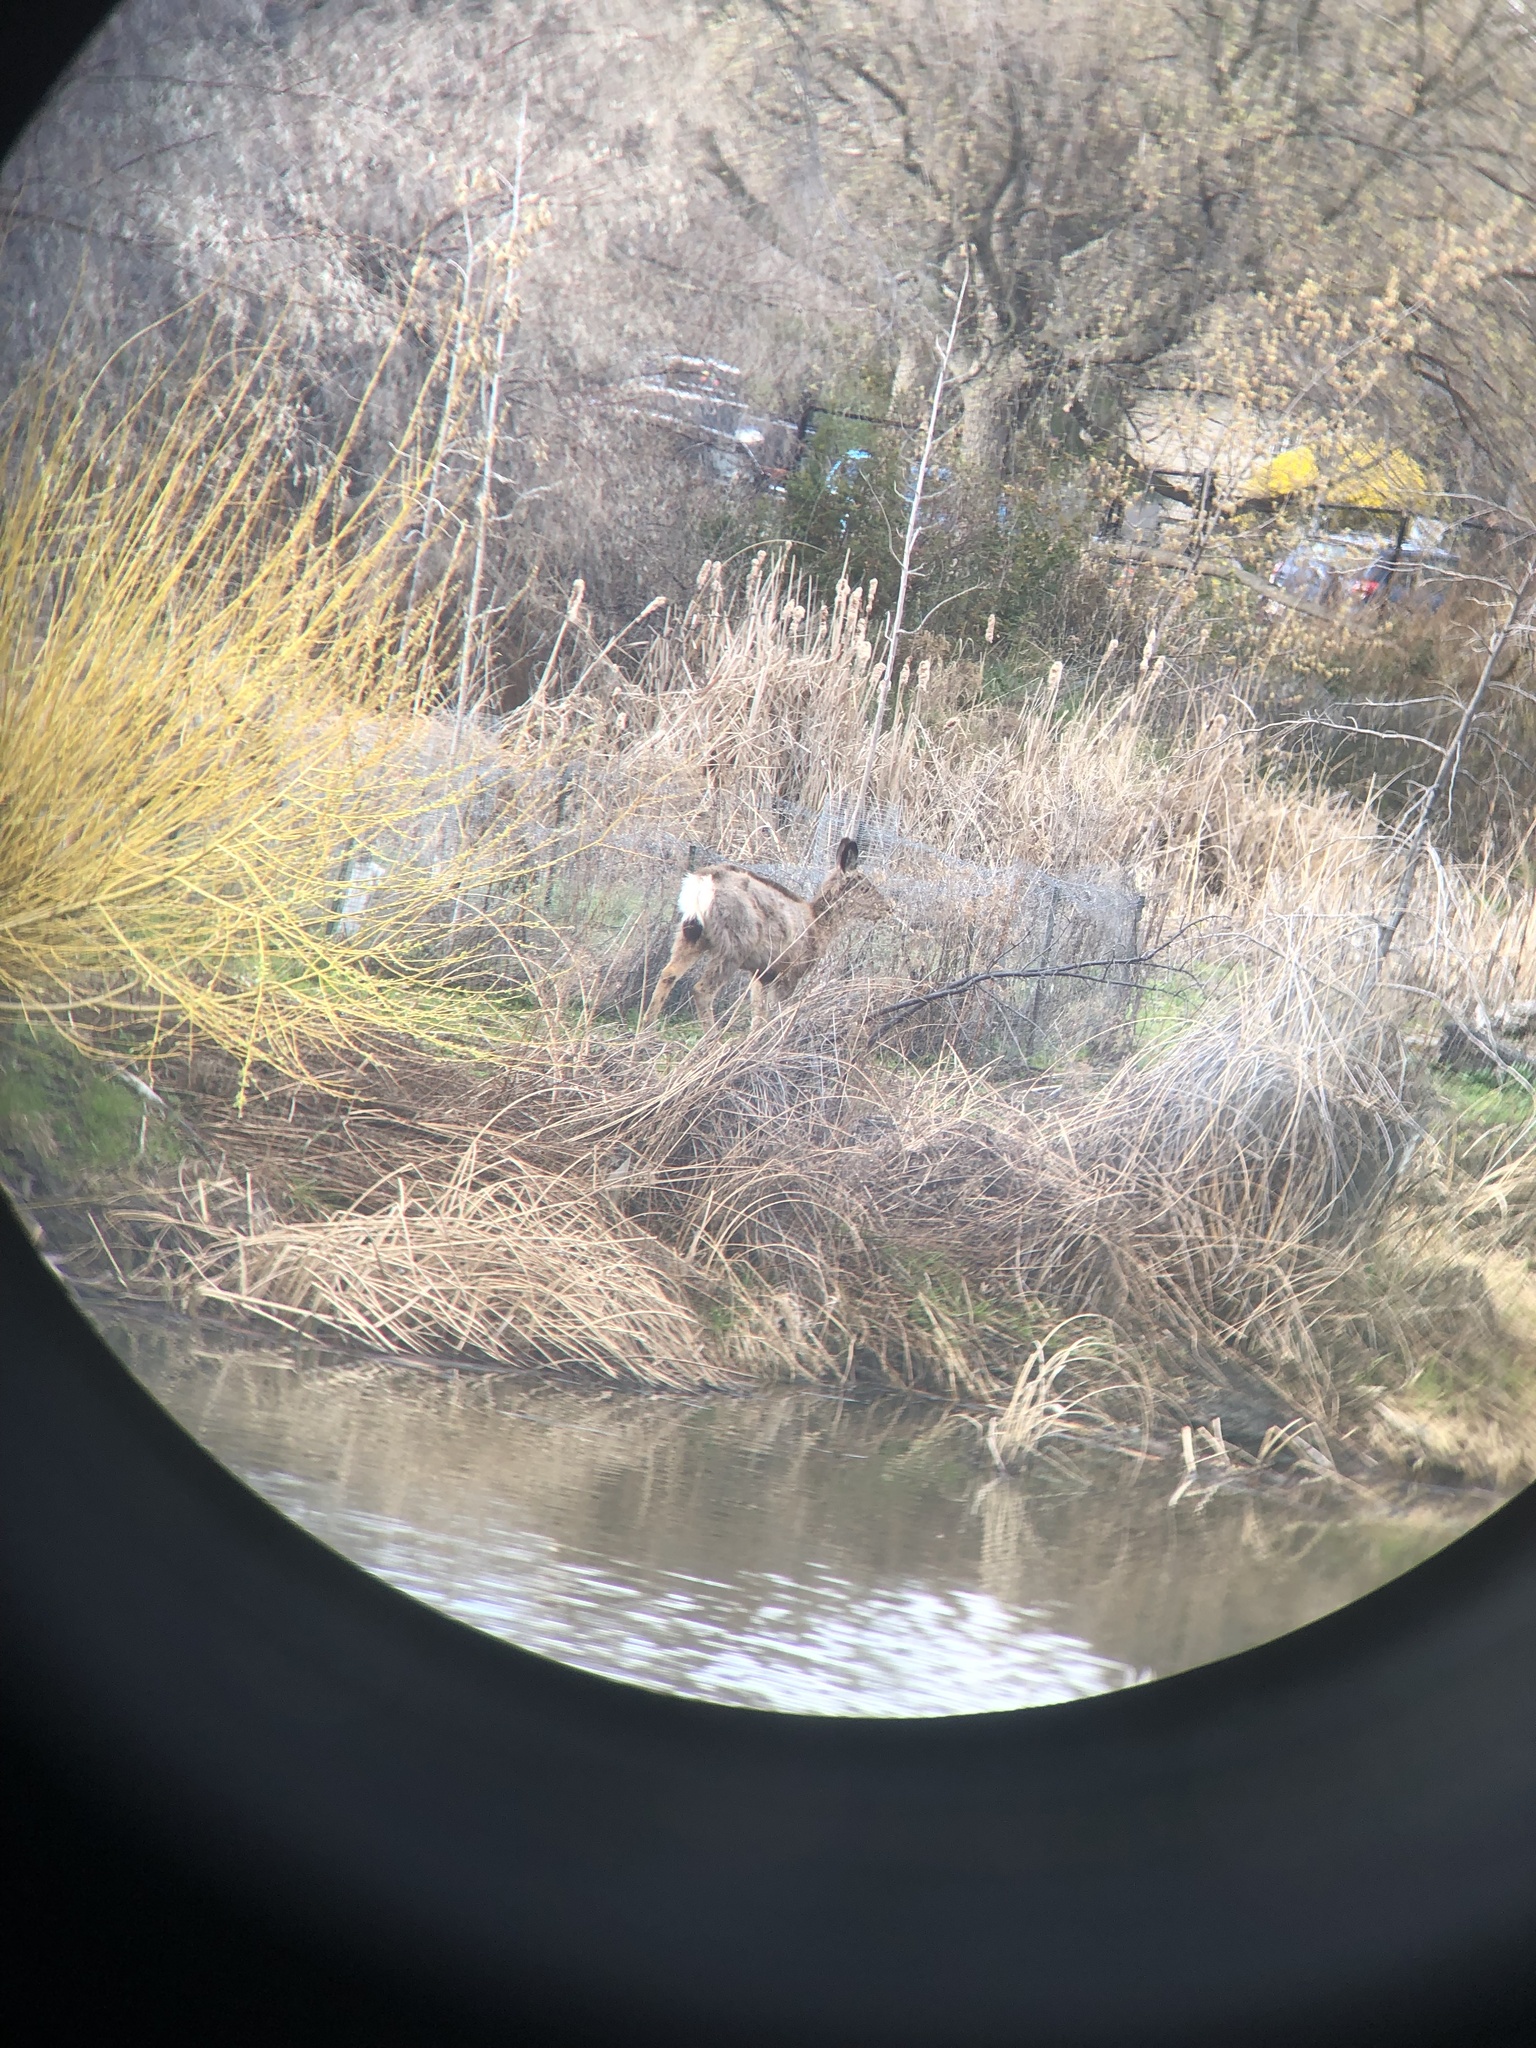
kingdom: Animalia
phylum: Chordata
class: Mammalia
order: Artiodactyla
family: Cervidae
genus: Odocoileus
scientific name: Odocoileus hemionus
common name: Mule deer
